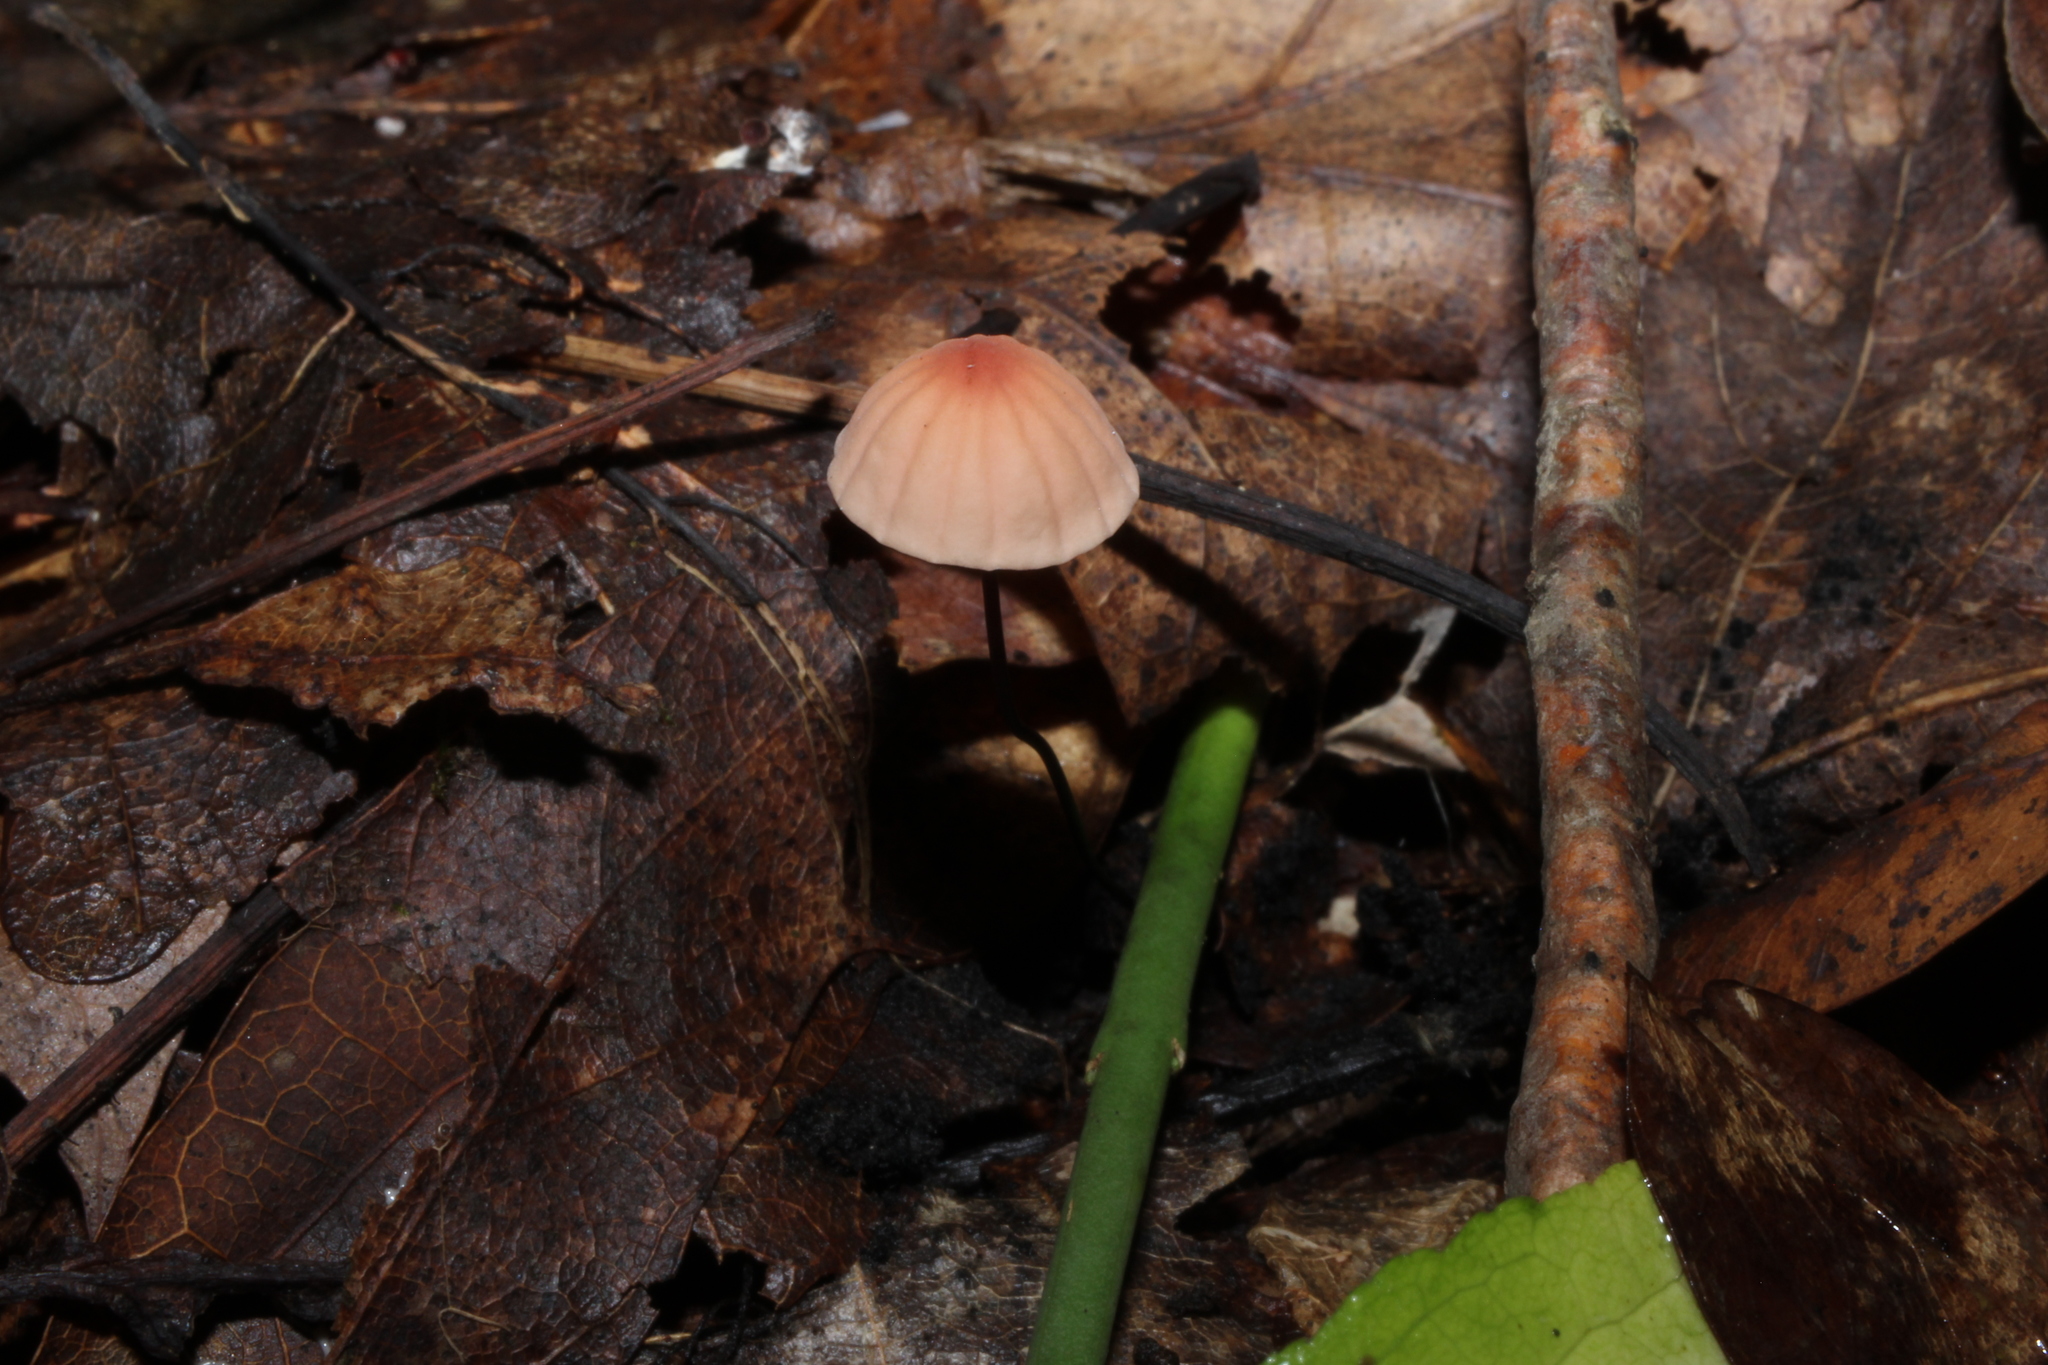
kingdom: Fungi
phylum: Basidiomycota
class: Agaricomycetes
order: Agaricales
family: Marasmiaceae
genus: Marasmius
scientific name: Marasmius siccus
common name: Orange pinwheel
